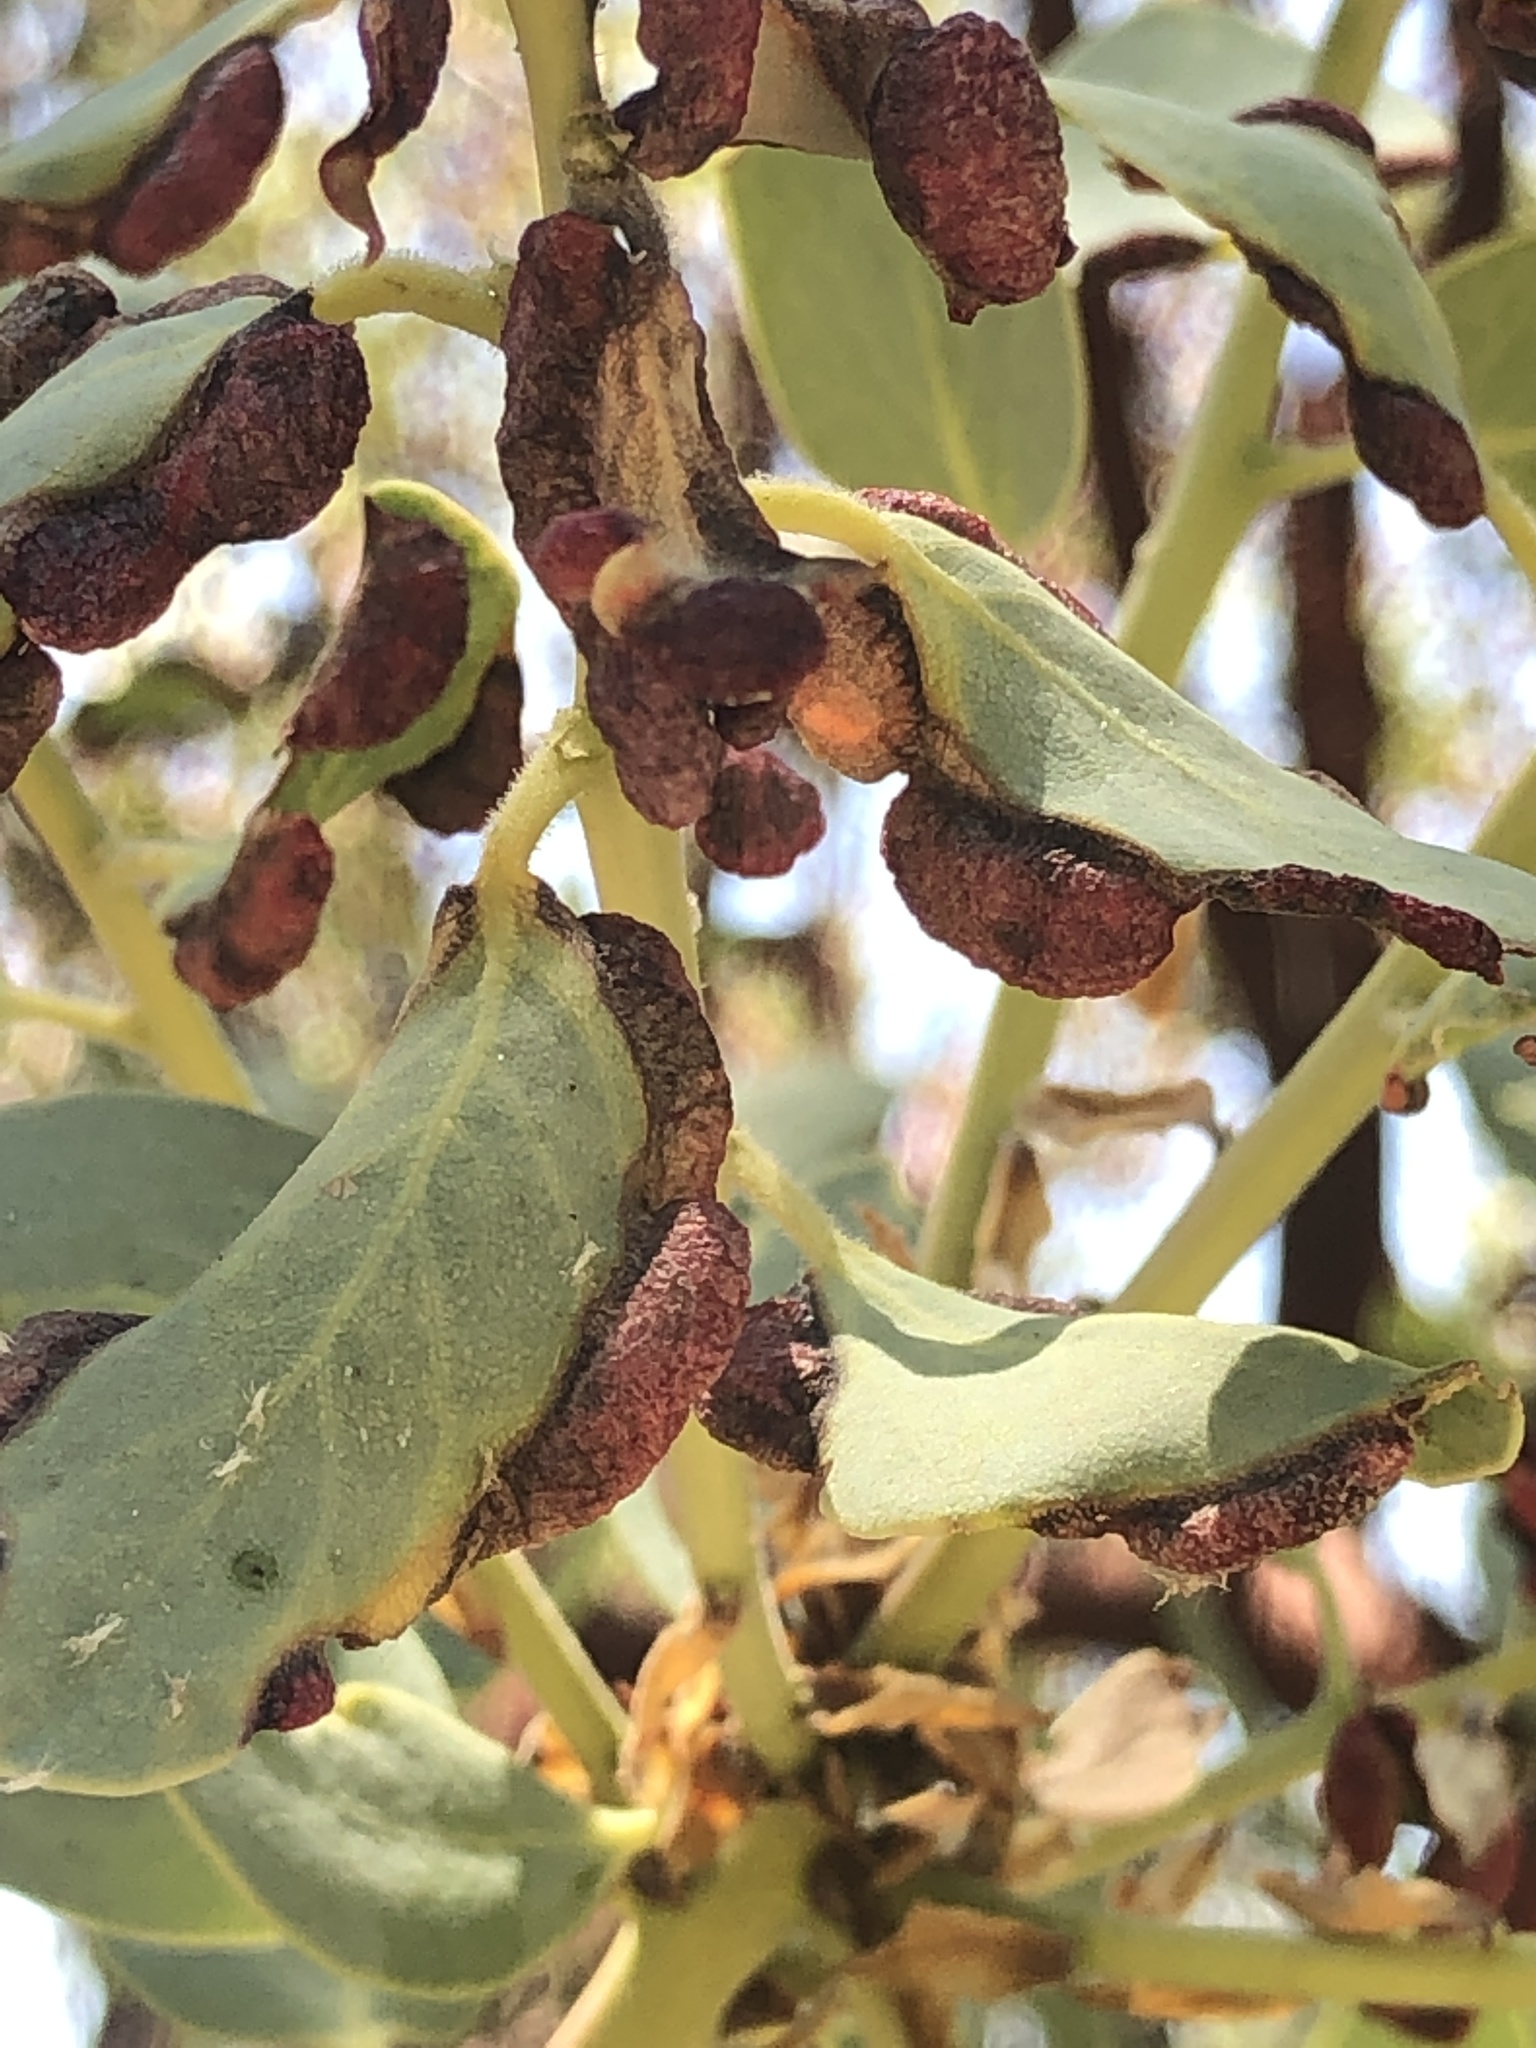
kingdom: Animalia
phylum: Arthropoda
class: Insecta
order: Hemiptera
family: Aphididae
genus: Tamalia
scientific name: Tamalia
